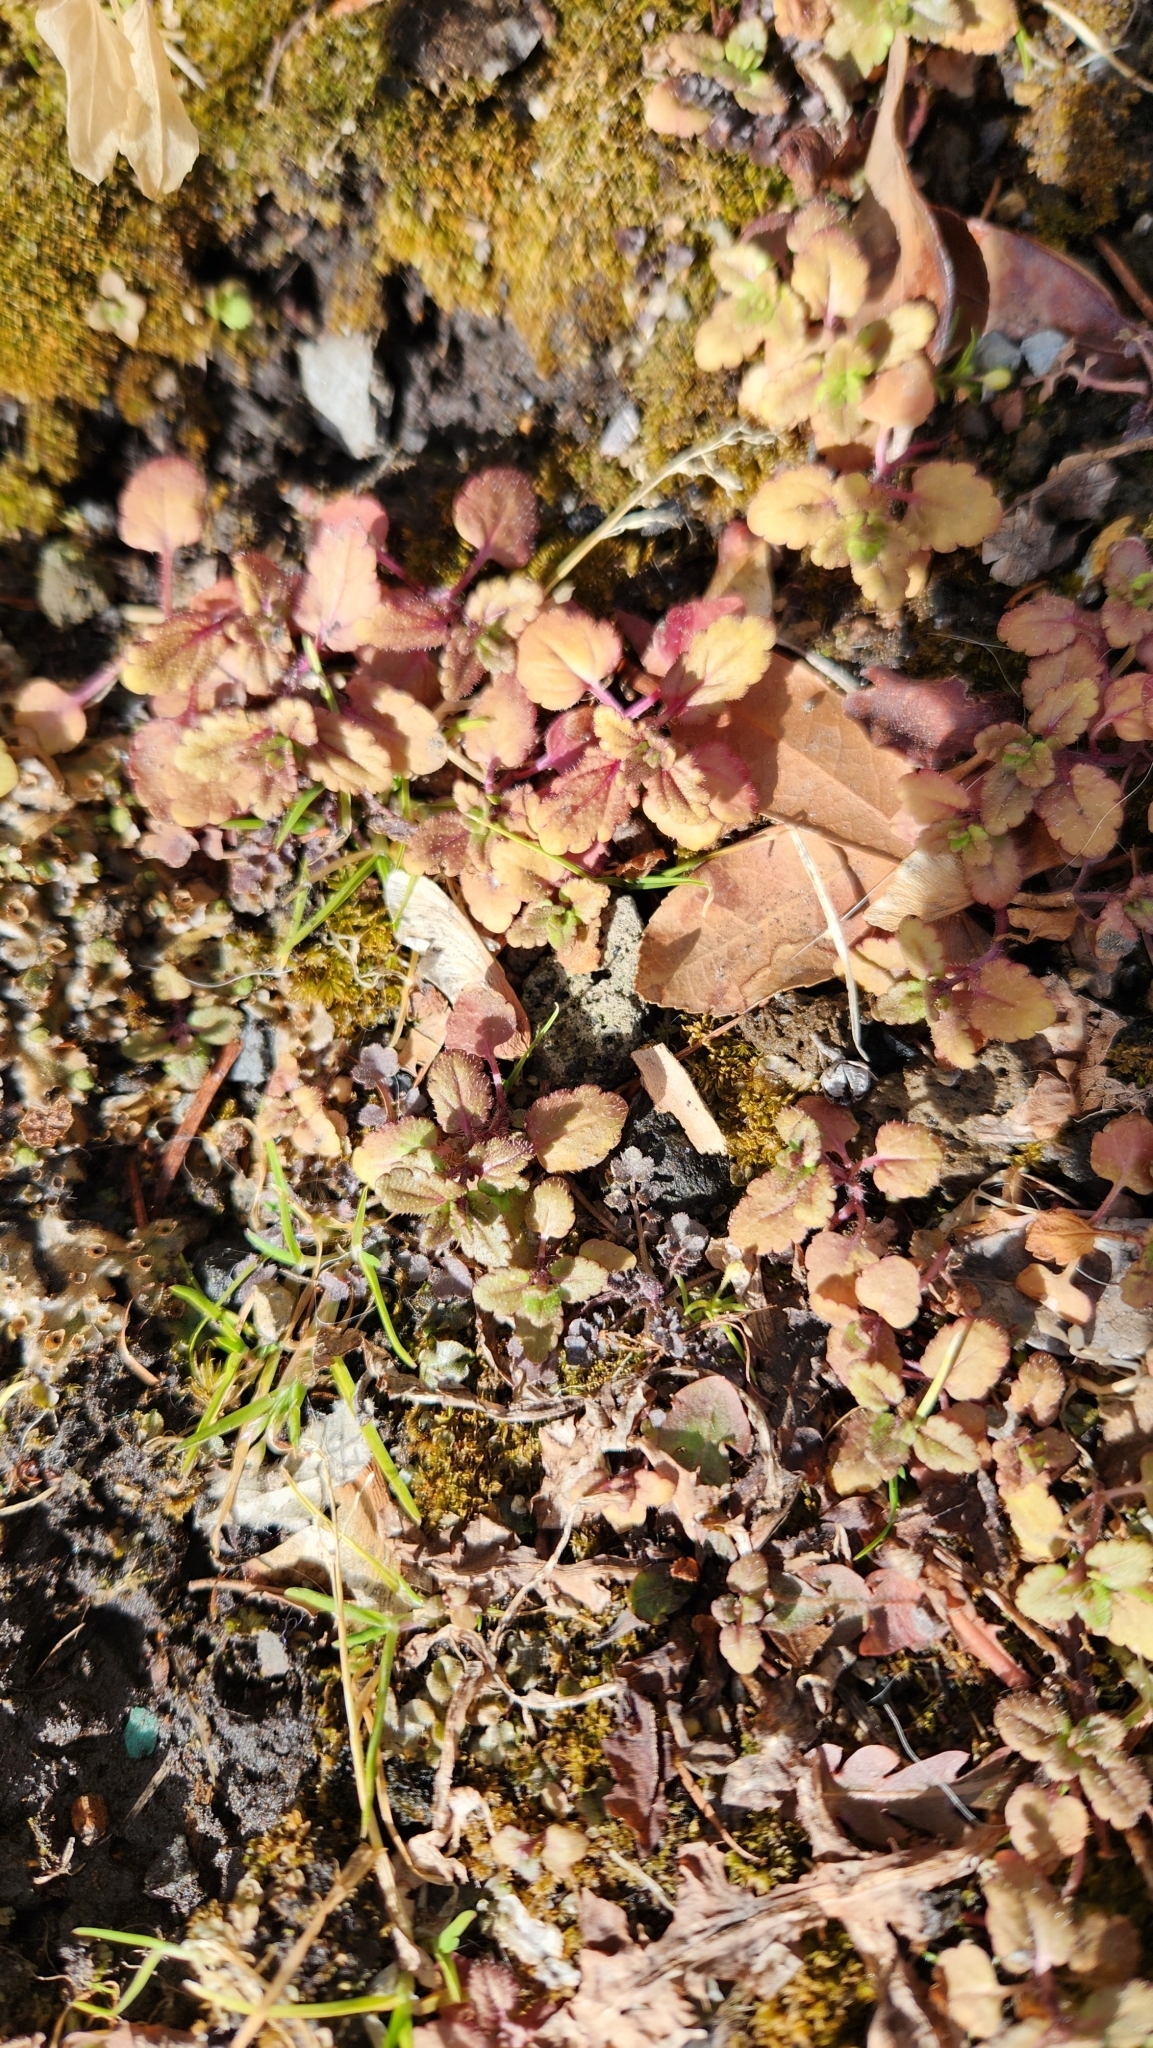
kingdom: Plantae
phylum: Tracheophyta
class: Magnoliopsida
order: Lamiales
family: Plantaginaceae
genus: Veronica
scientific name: Veronica persica
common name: Common field-speedwell
